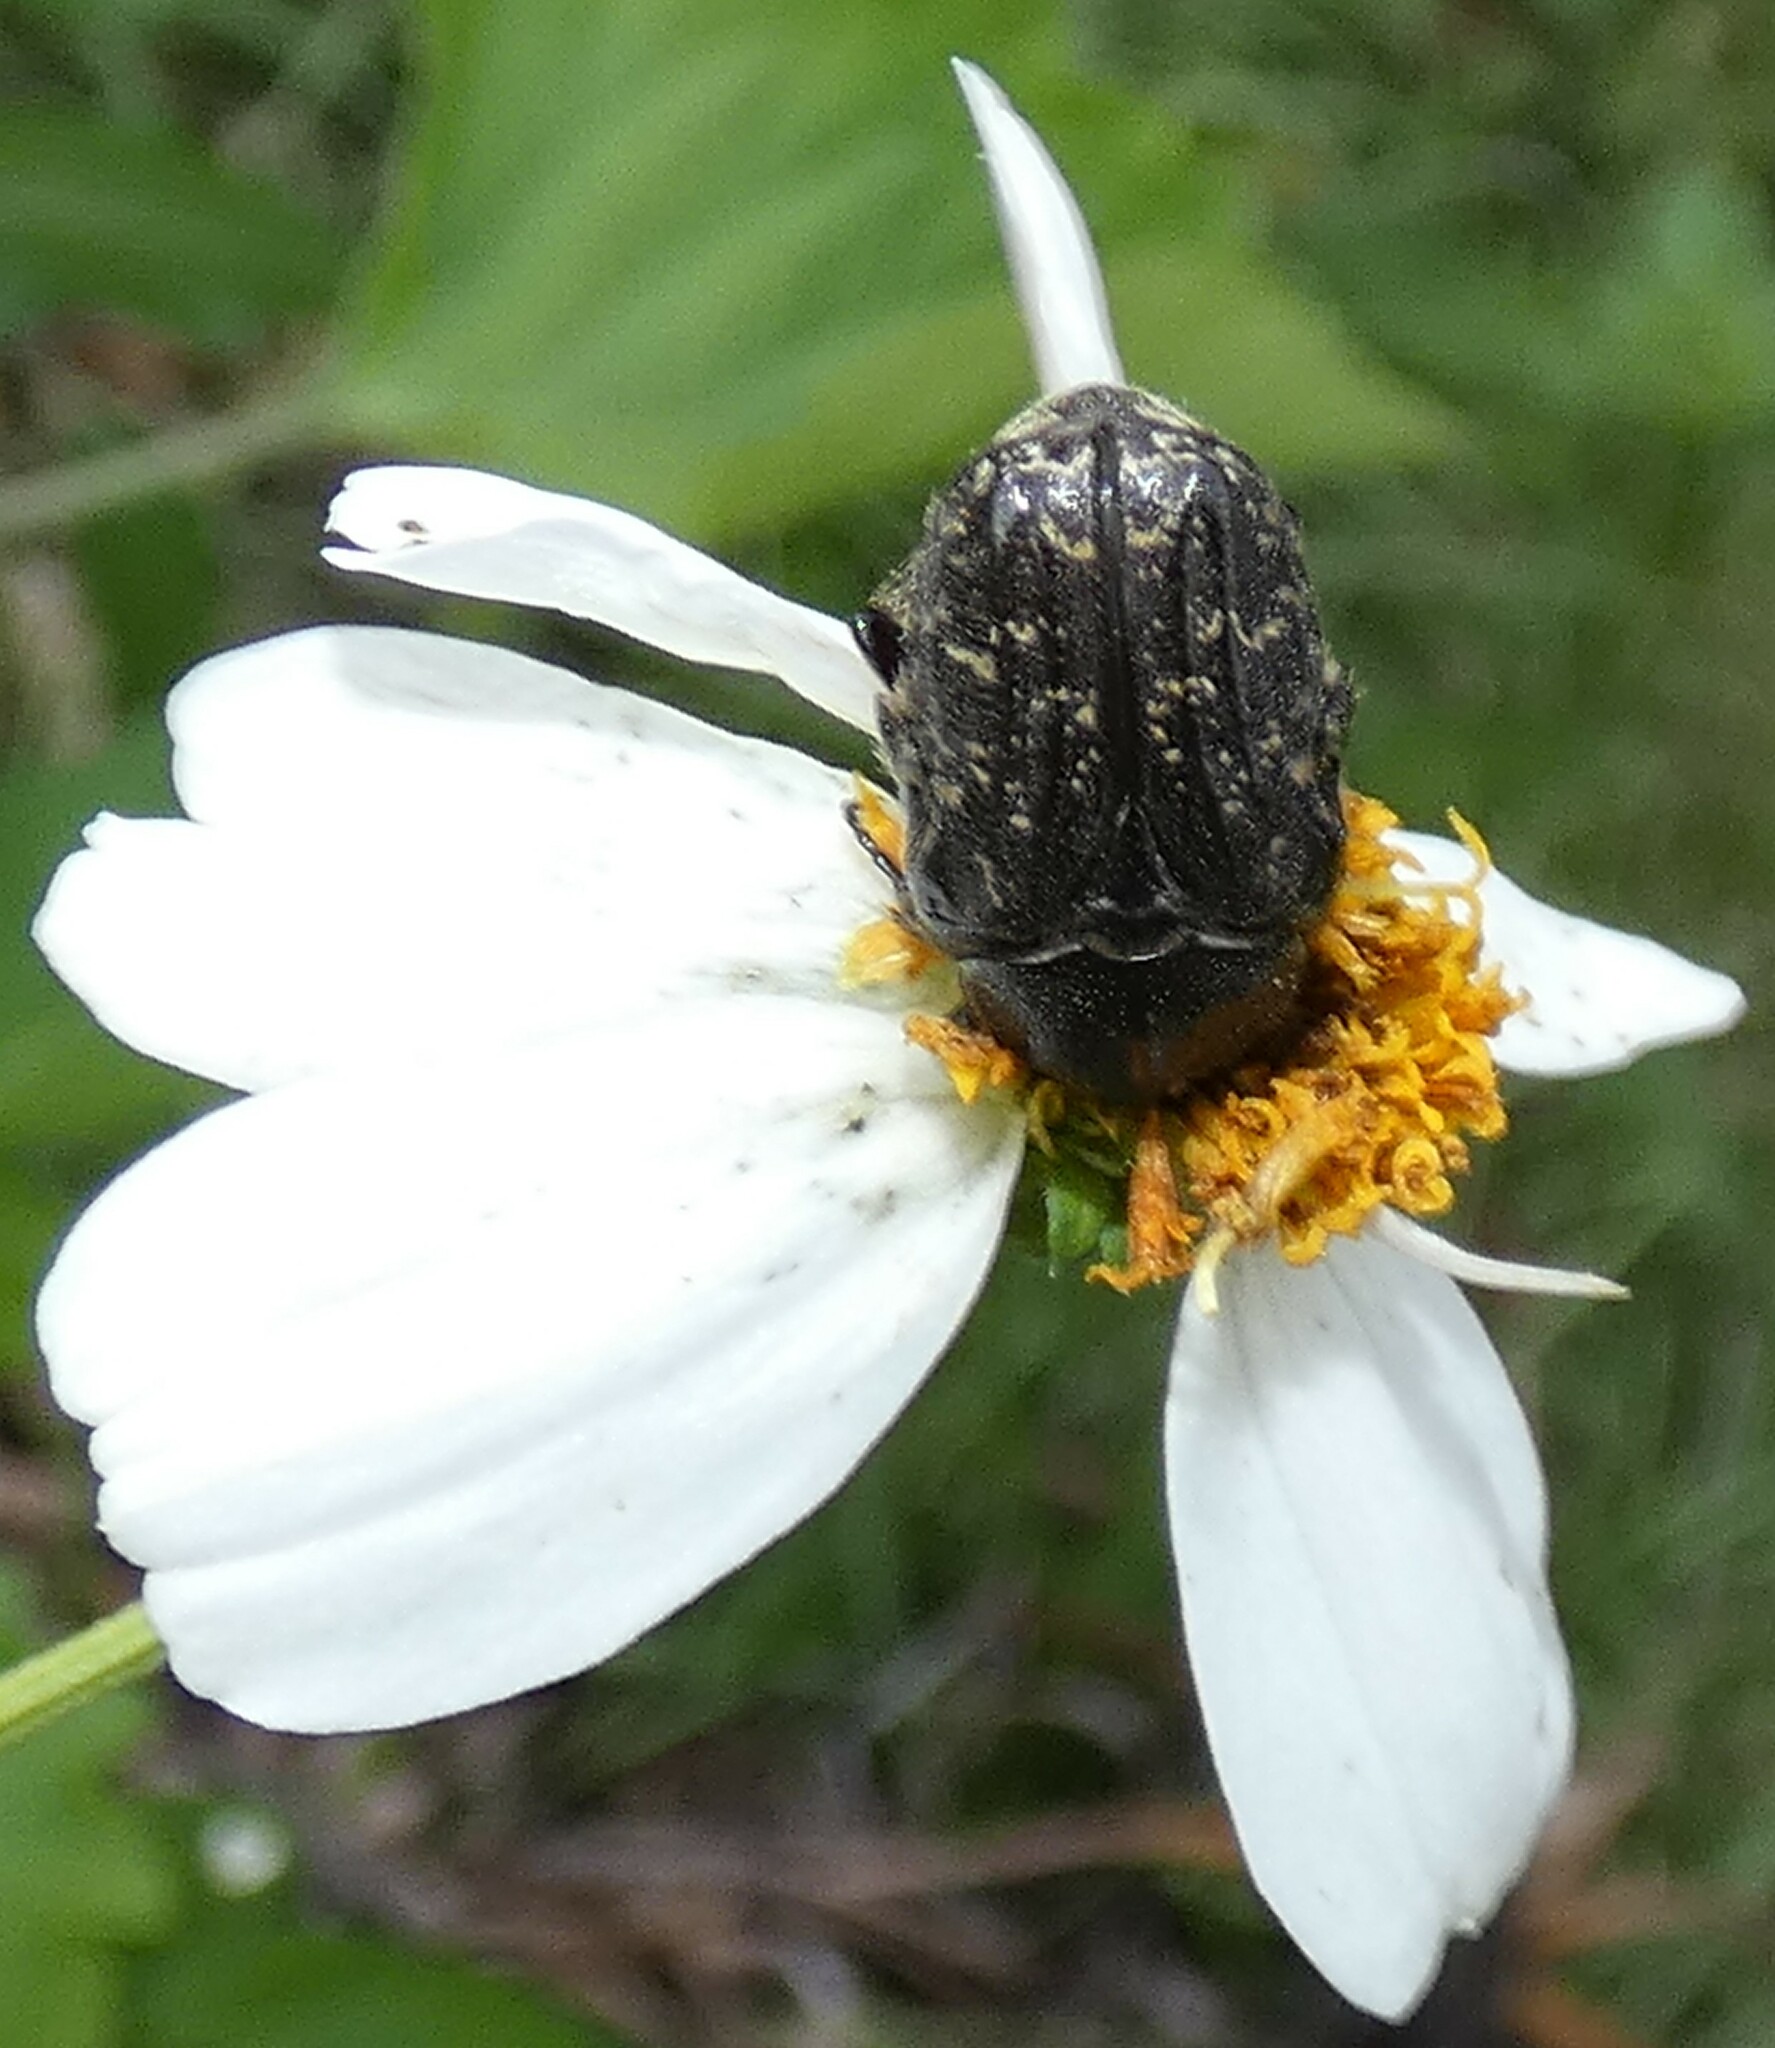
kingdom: Animalia
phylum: Arthropoda
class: Insecta
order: Coleoptera
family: Scarabaeidae
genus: Euphoria
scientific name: Euphoria sepulcralis
